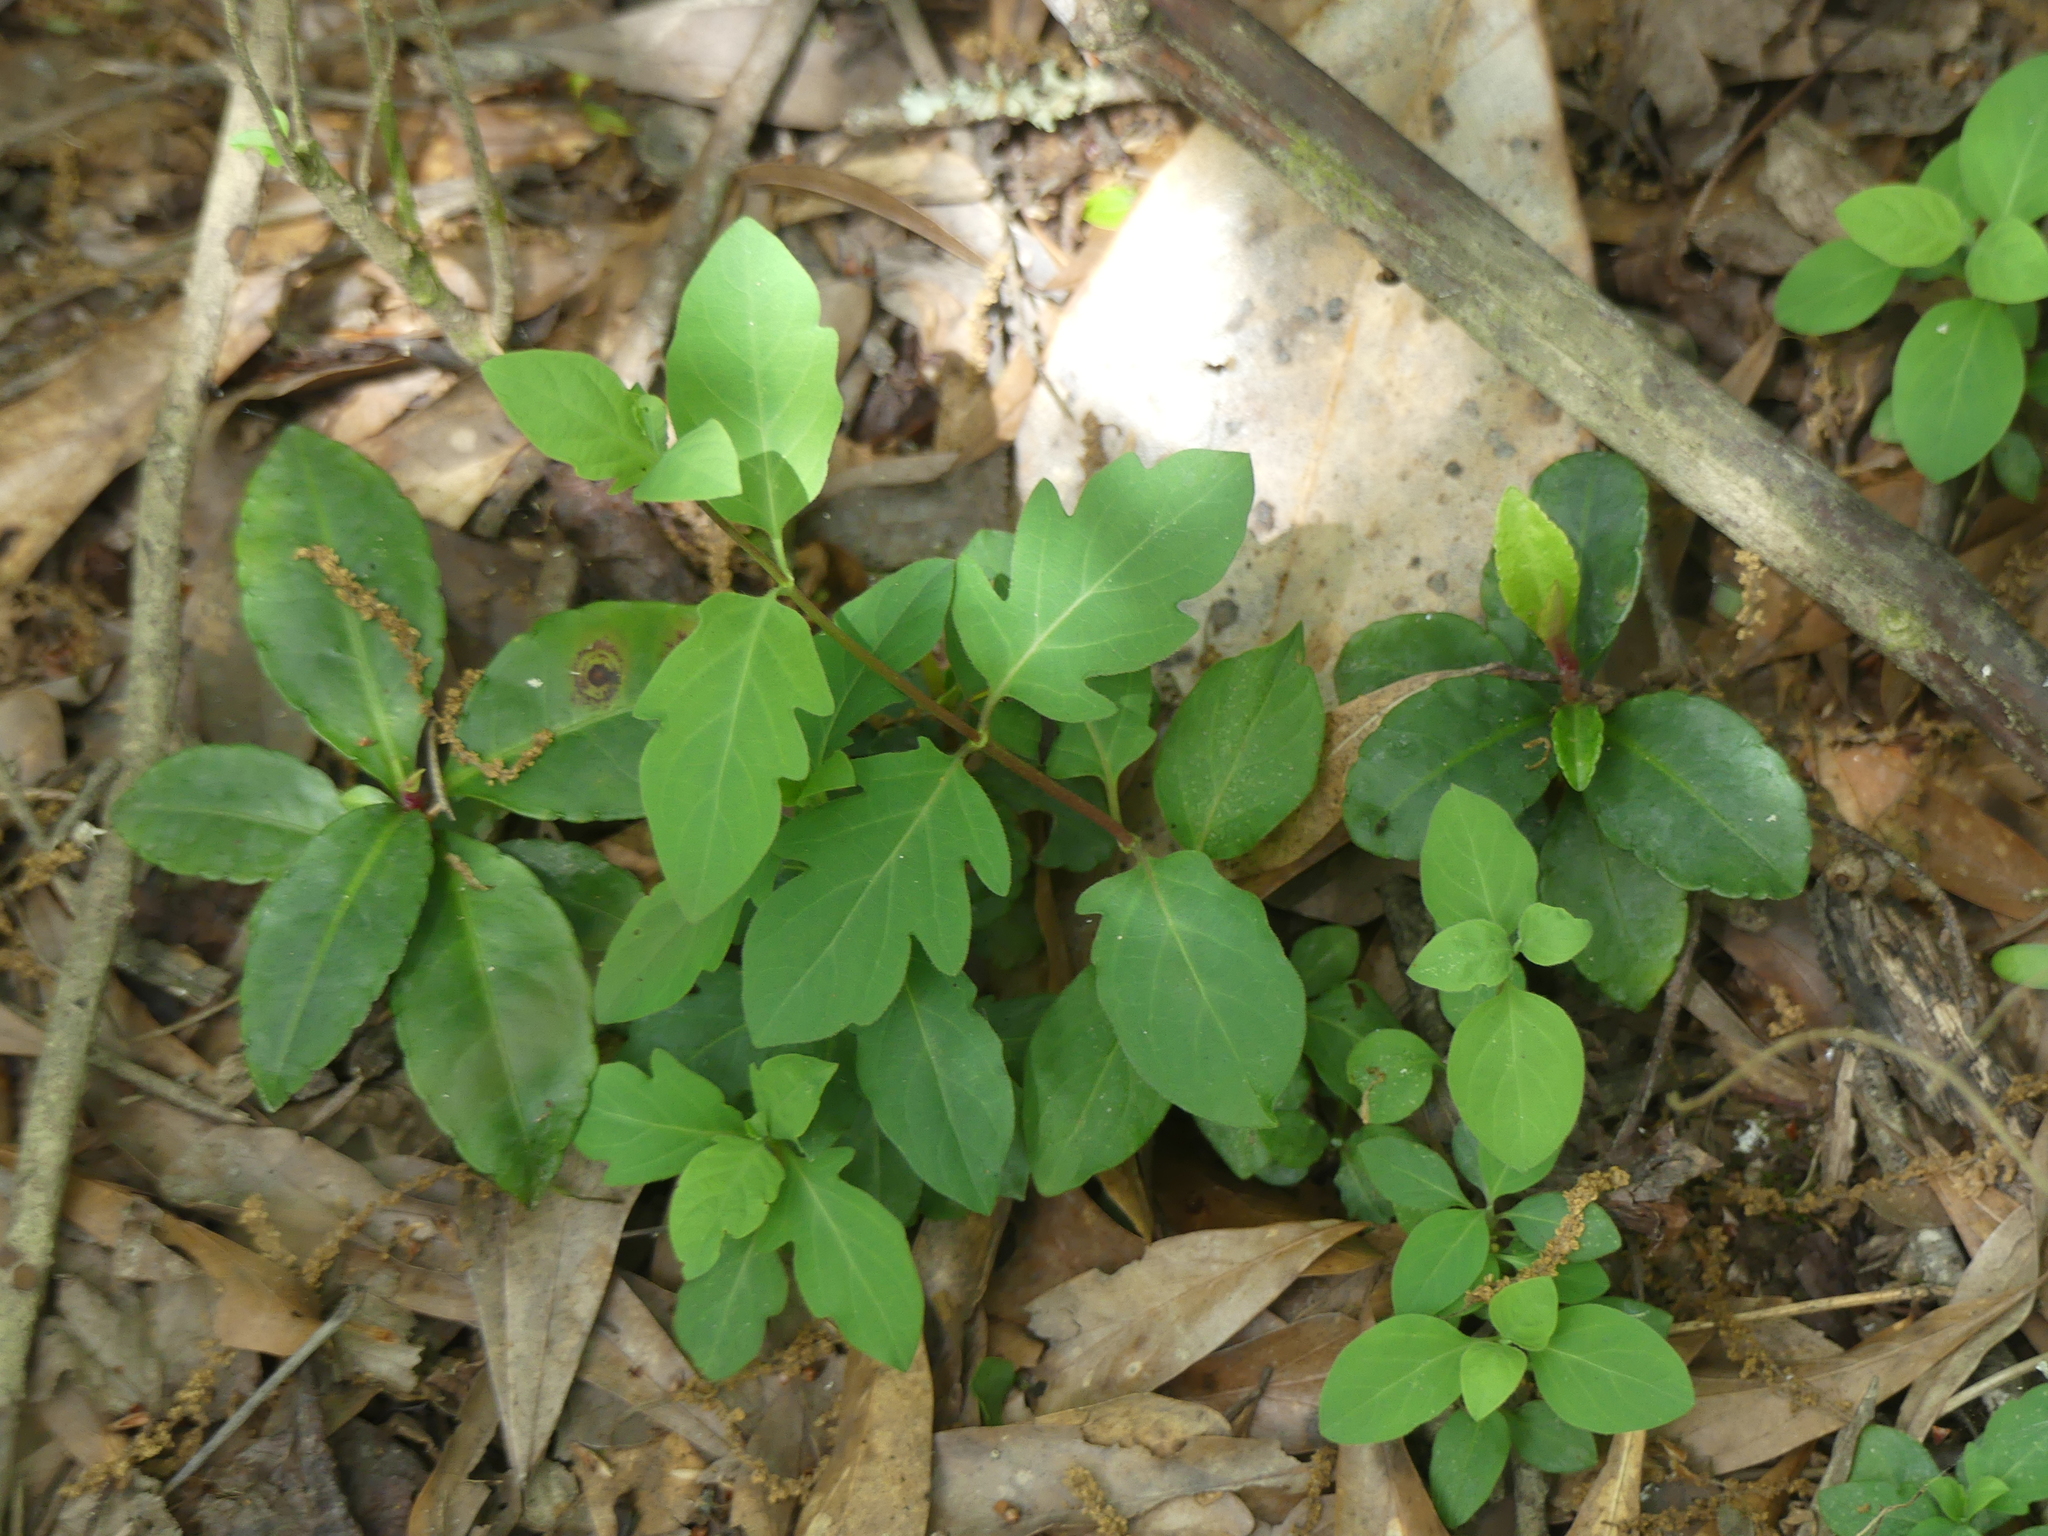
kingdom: Plantae
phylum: Tracheophyta
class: Magnoliopsida
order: Dipsacales
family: Caprifoliaceae
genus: Lonicera
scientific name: Lonicera japonica
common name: Japanese honeysuckle
